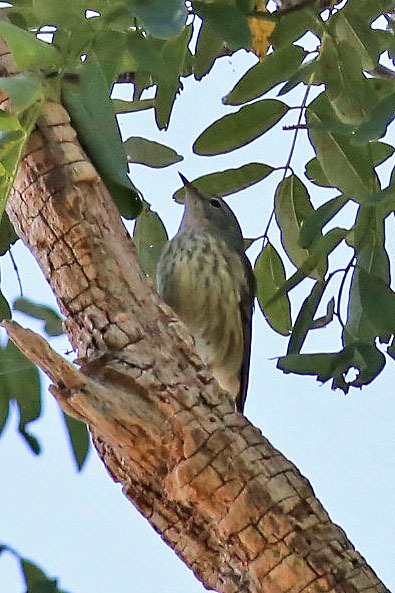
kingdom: Animalia
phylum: Chordata
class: Aves
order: Passeriformes
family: Parulidae
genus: Setophaga
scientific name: Setophaga tigrina
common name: Cape may warbler
